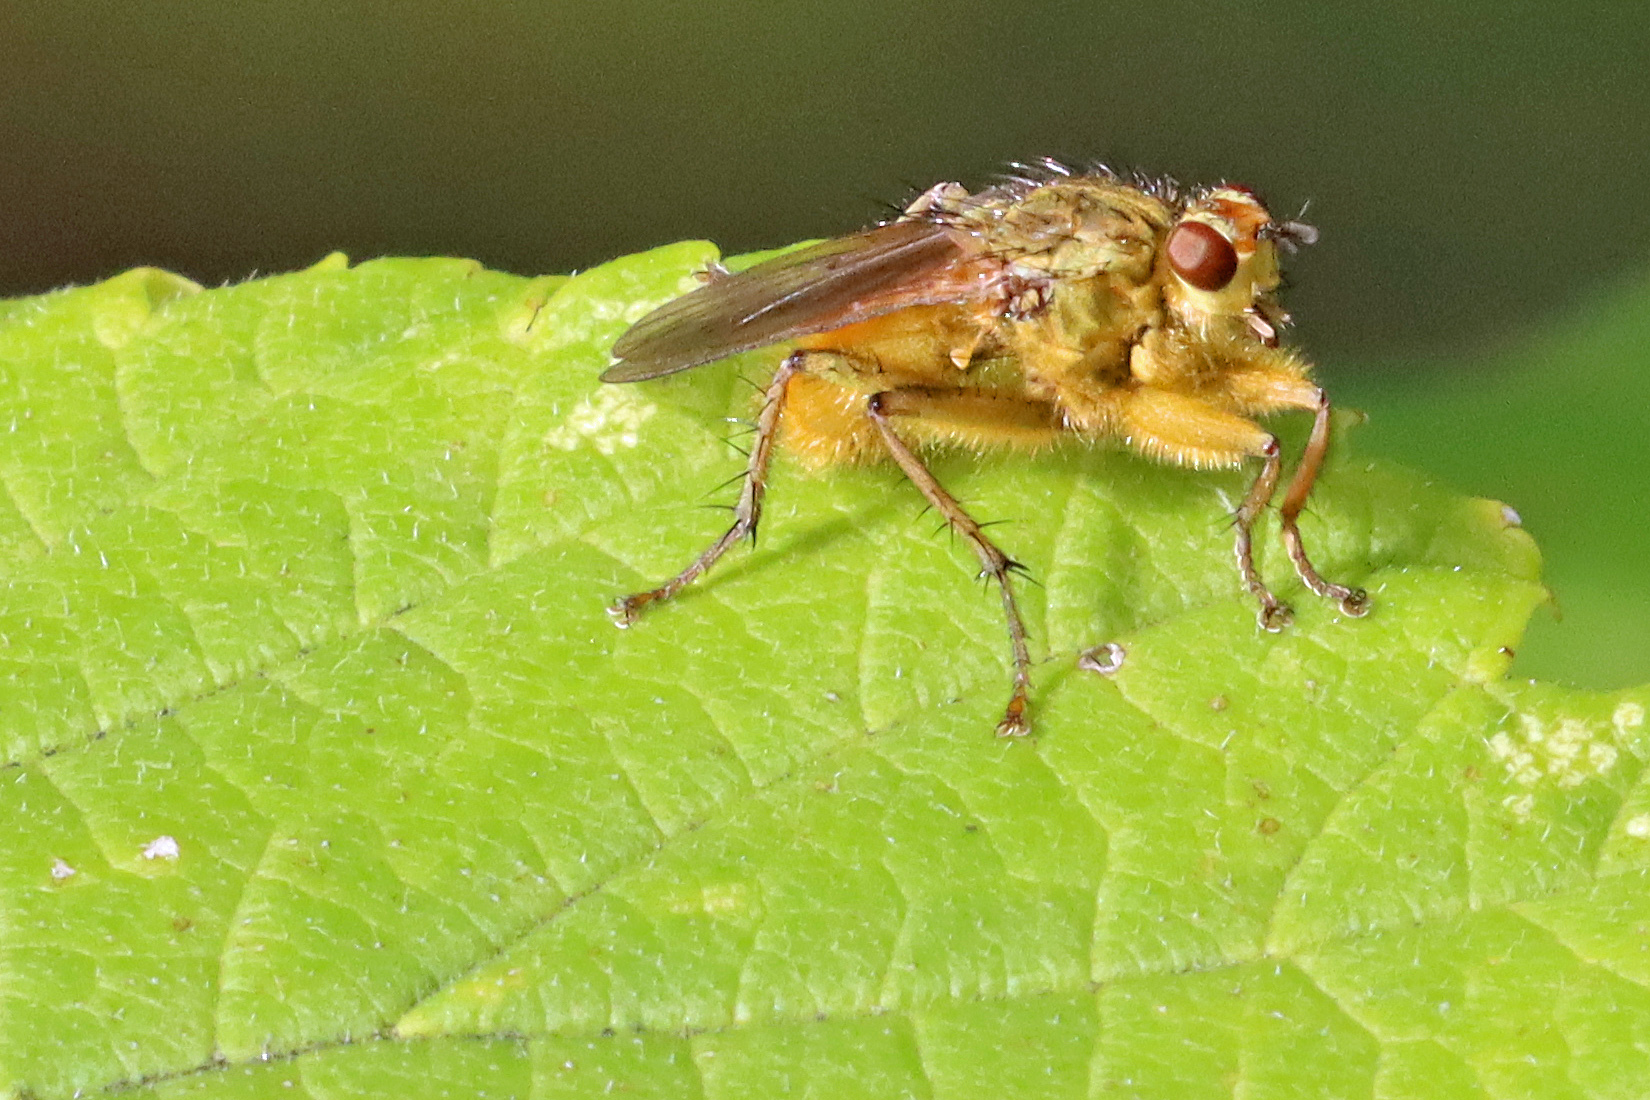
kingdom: Animalia
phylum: Arthropoda
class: Insecta
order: Diptera
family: Scathophagidae
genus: Scathophaga
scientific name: Scathophaga stercoraria
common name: Yellow dung fly
